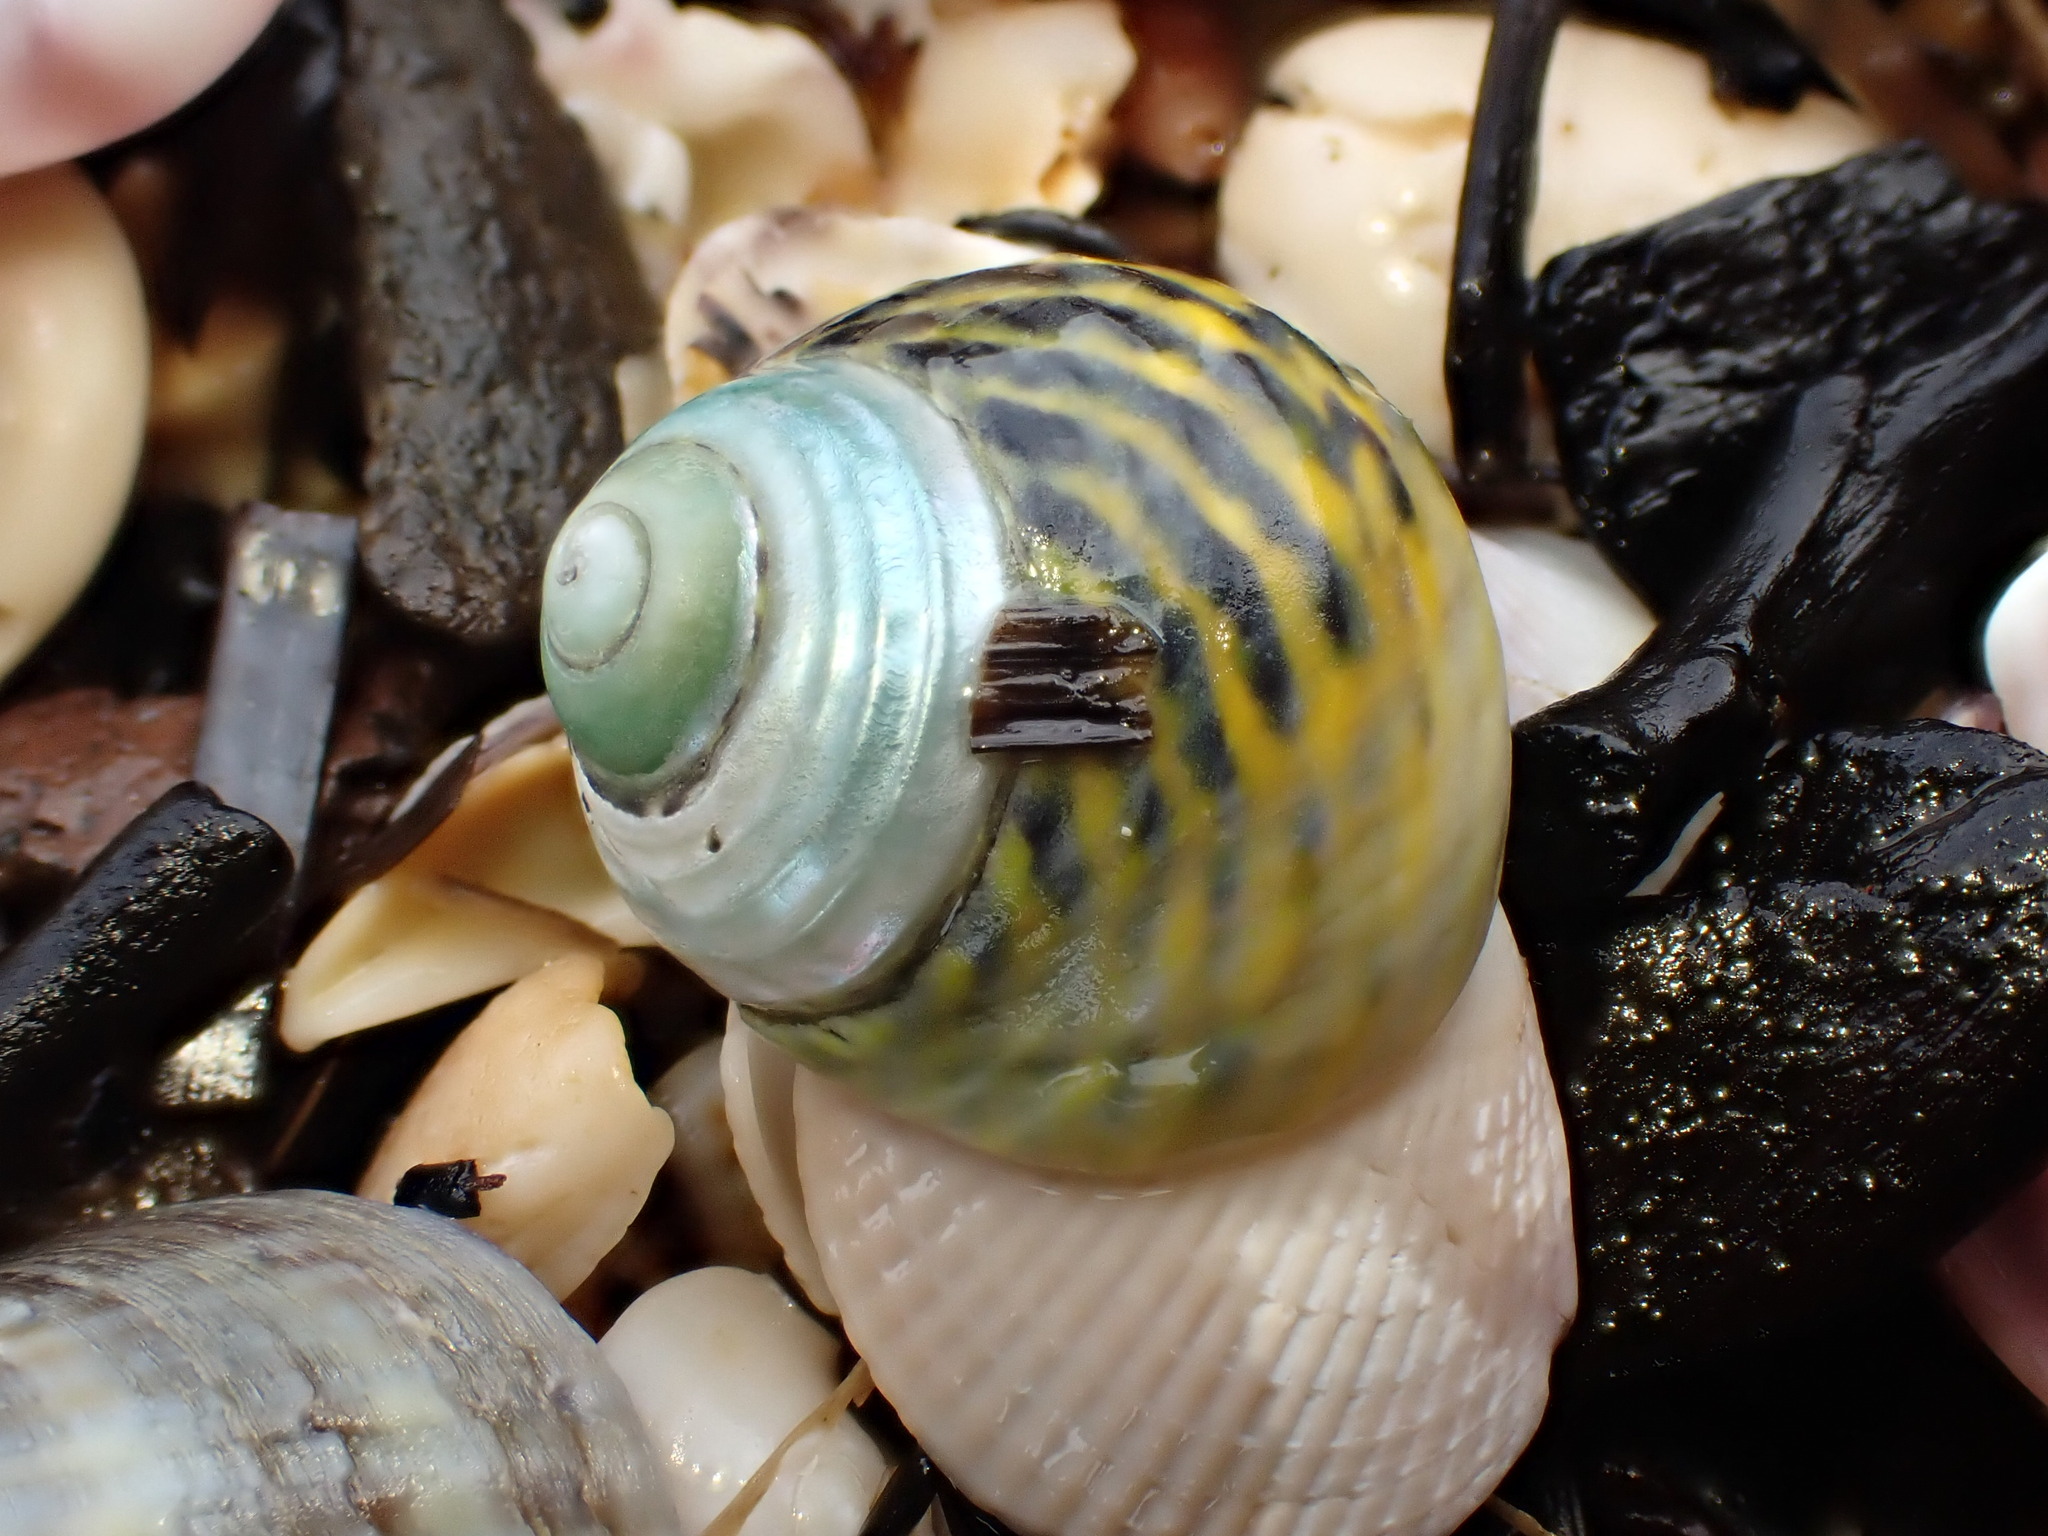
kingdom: Animalia
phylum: Mollusca
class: Gastropoda
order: Trochida
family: Trochidae
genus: Diloma
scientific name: Diloma subrostratum
